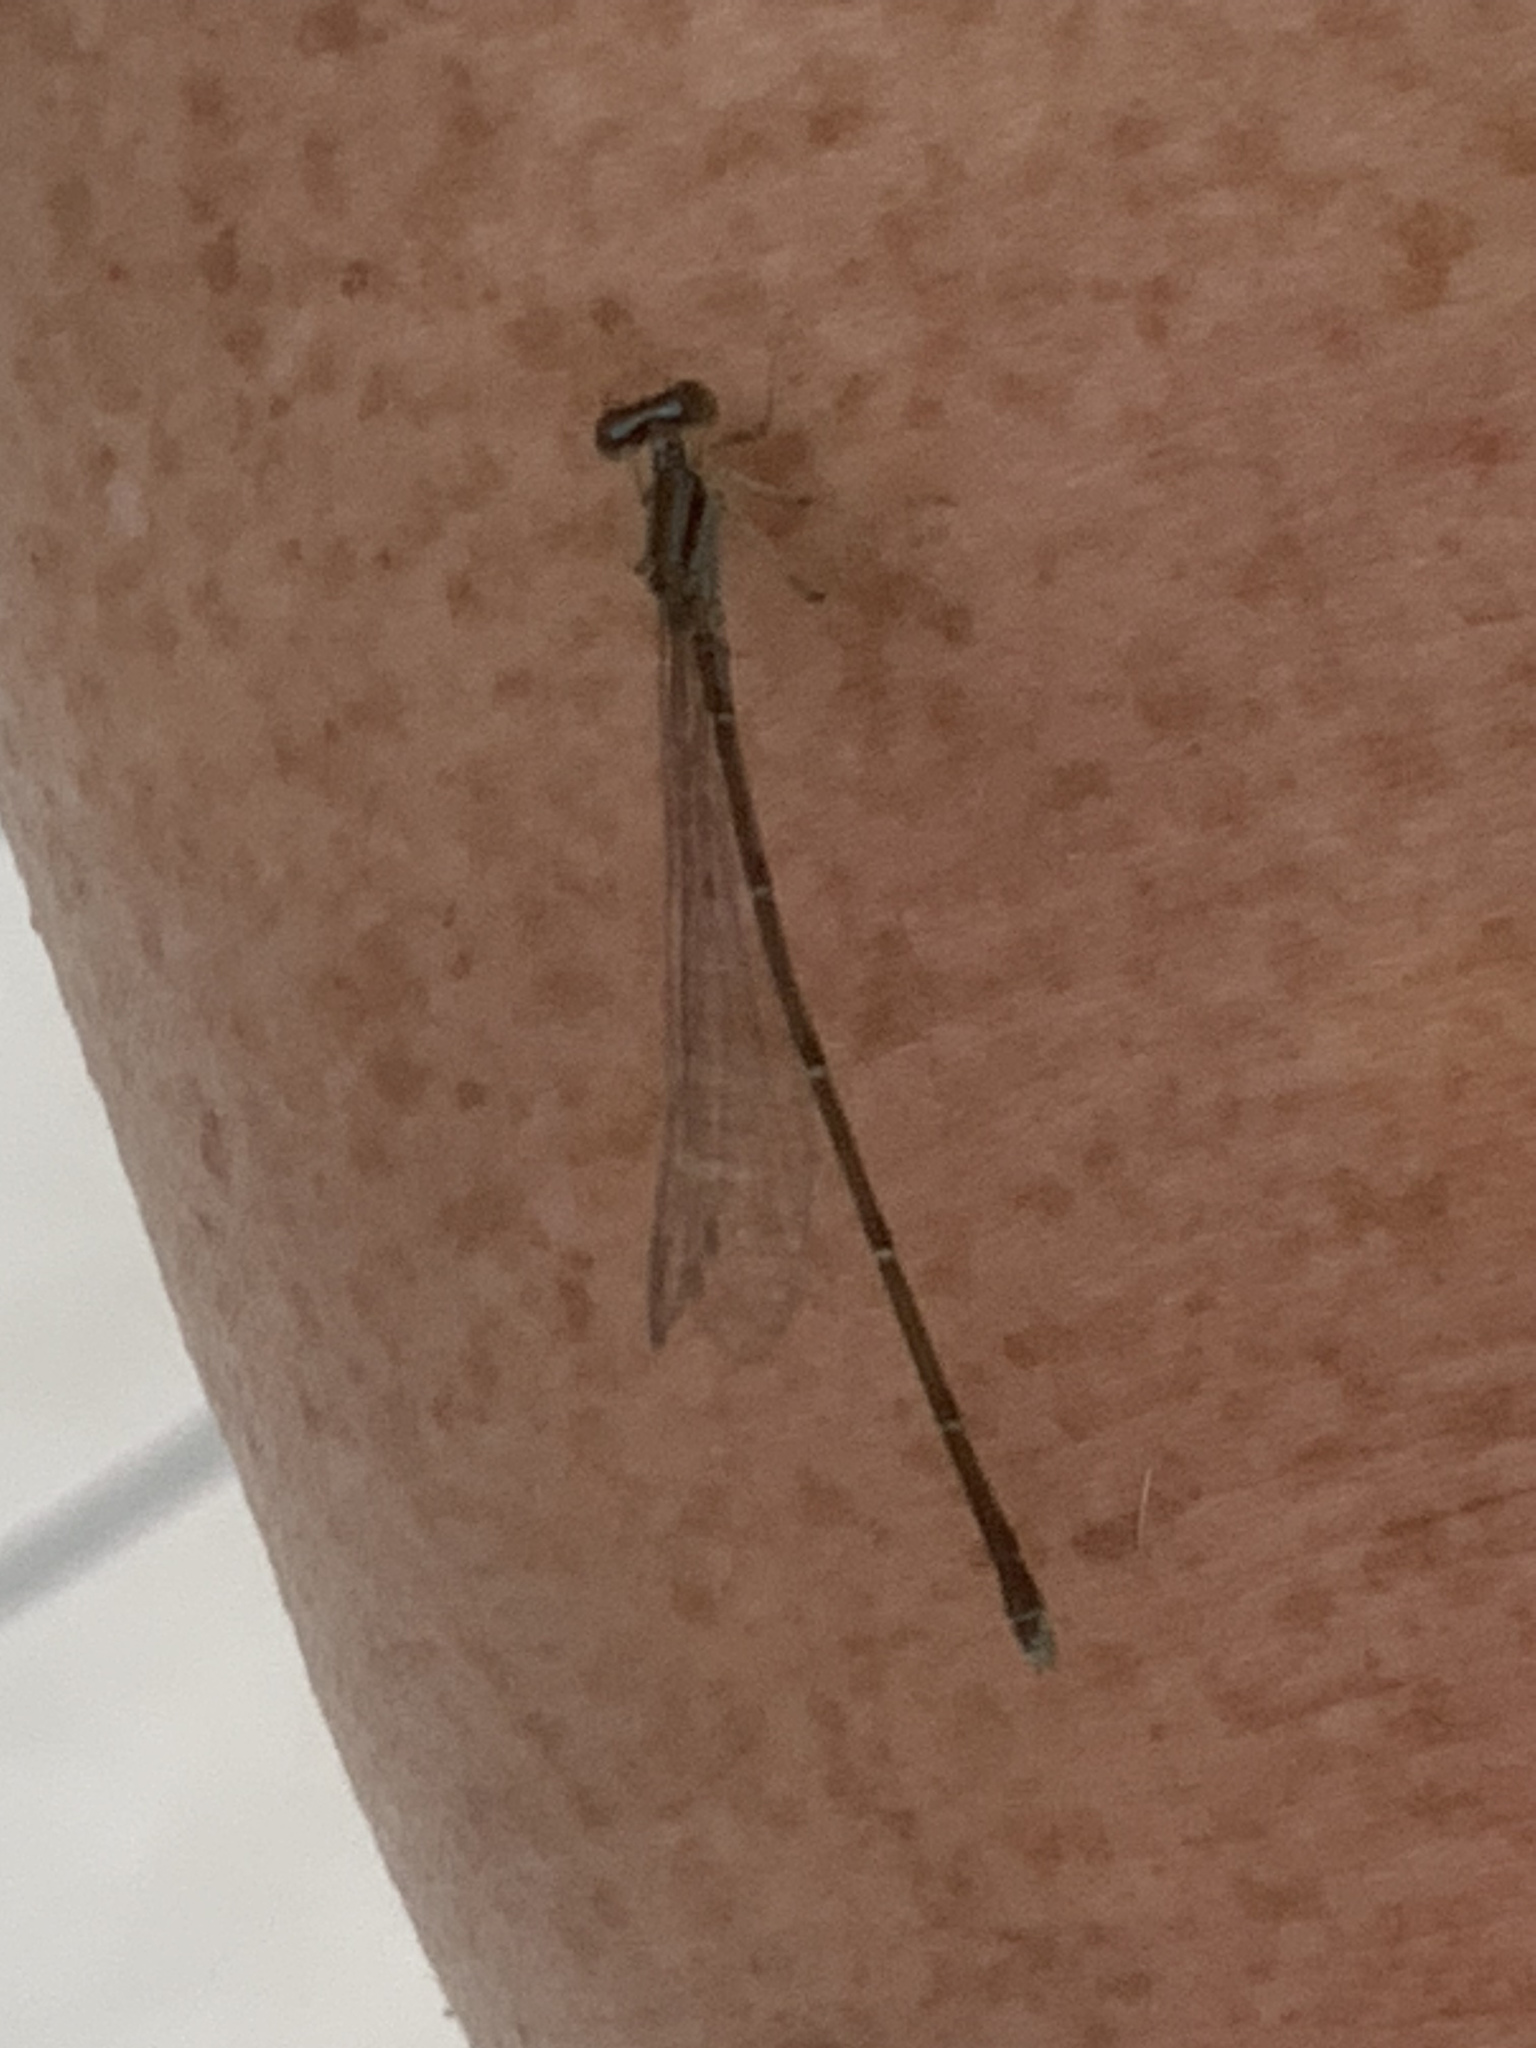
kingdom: Animalia
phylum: Arthropoda
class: Insecta
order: Odonata
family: Coenagrionidae
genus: Enallagma
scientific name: Enallagma signatum
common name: Orange bluet
